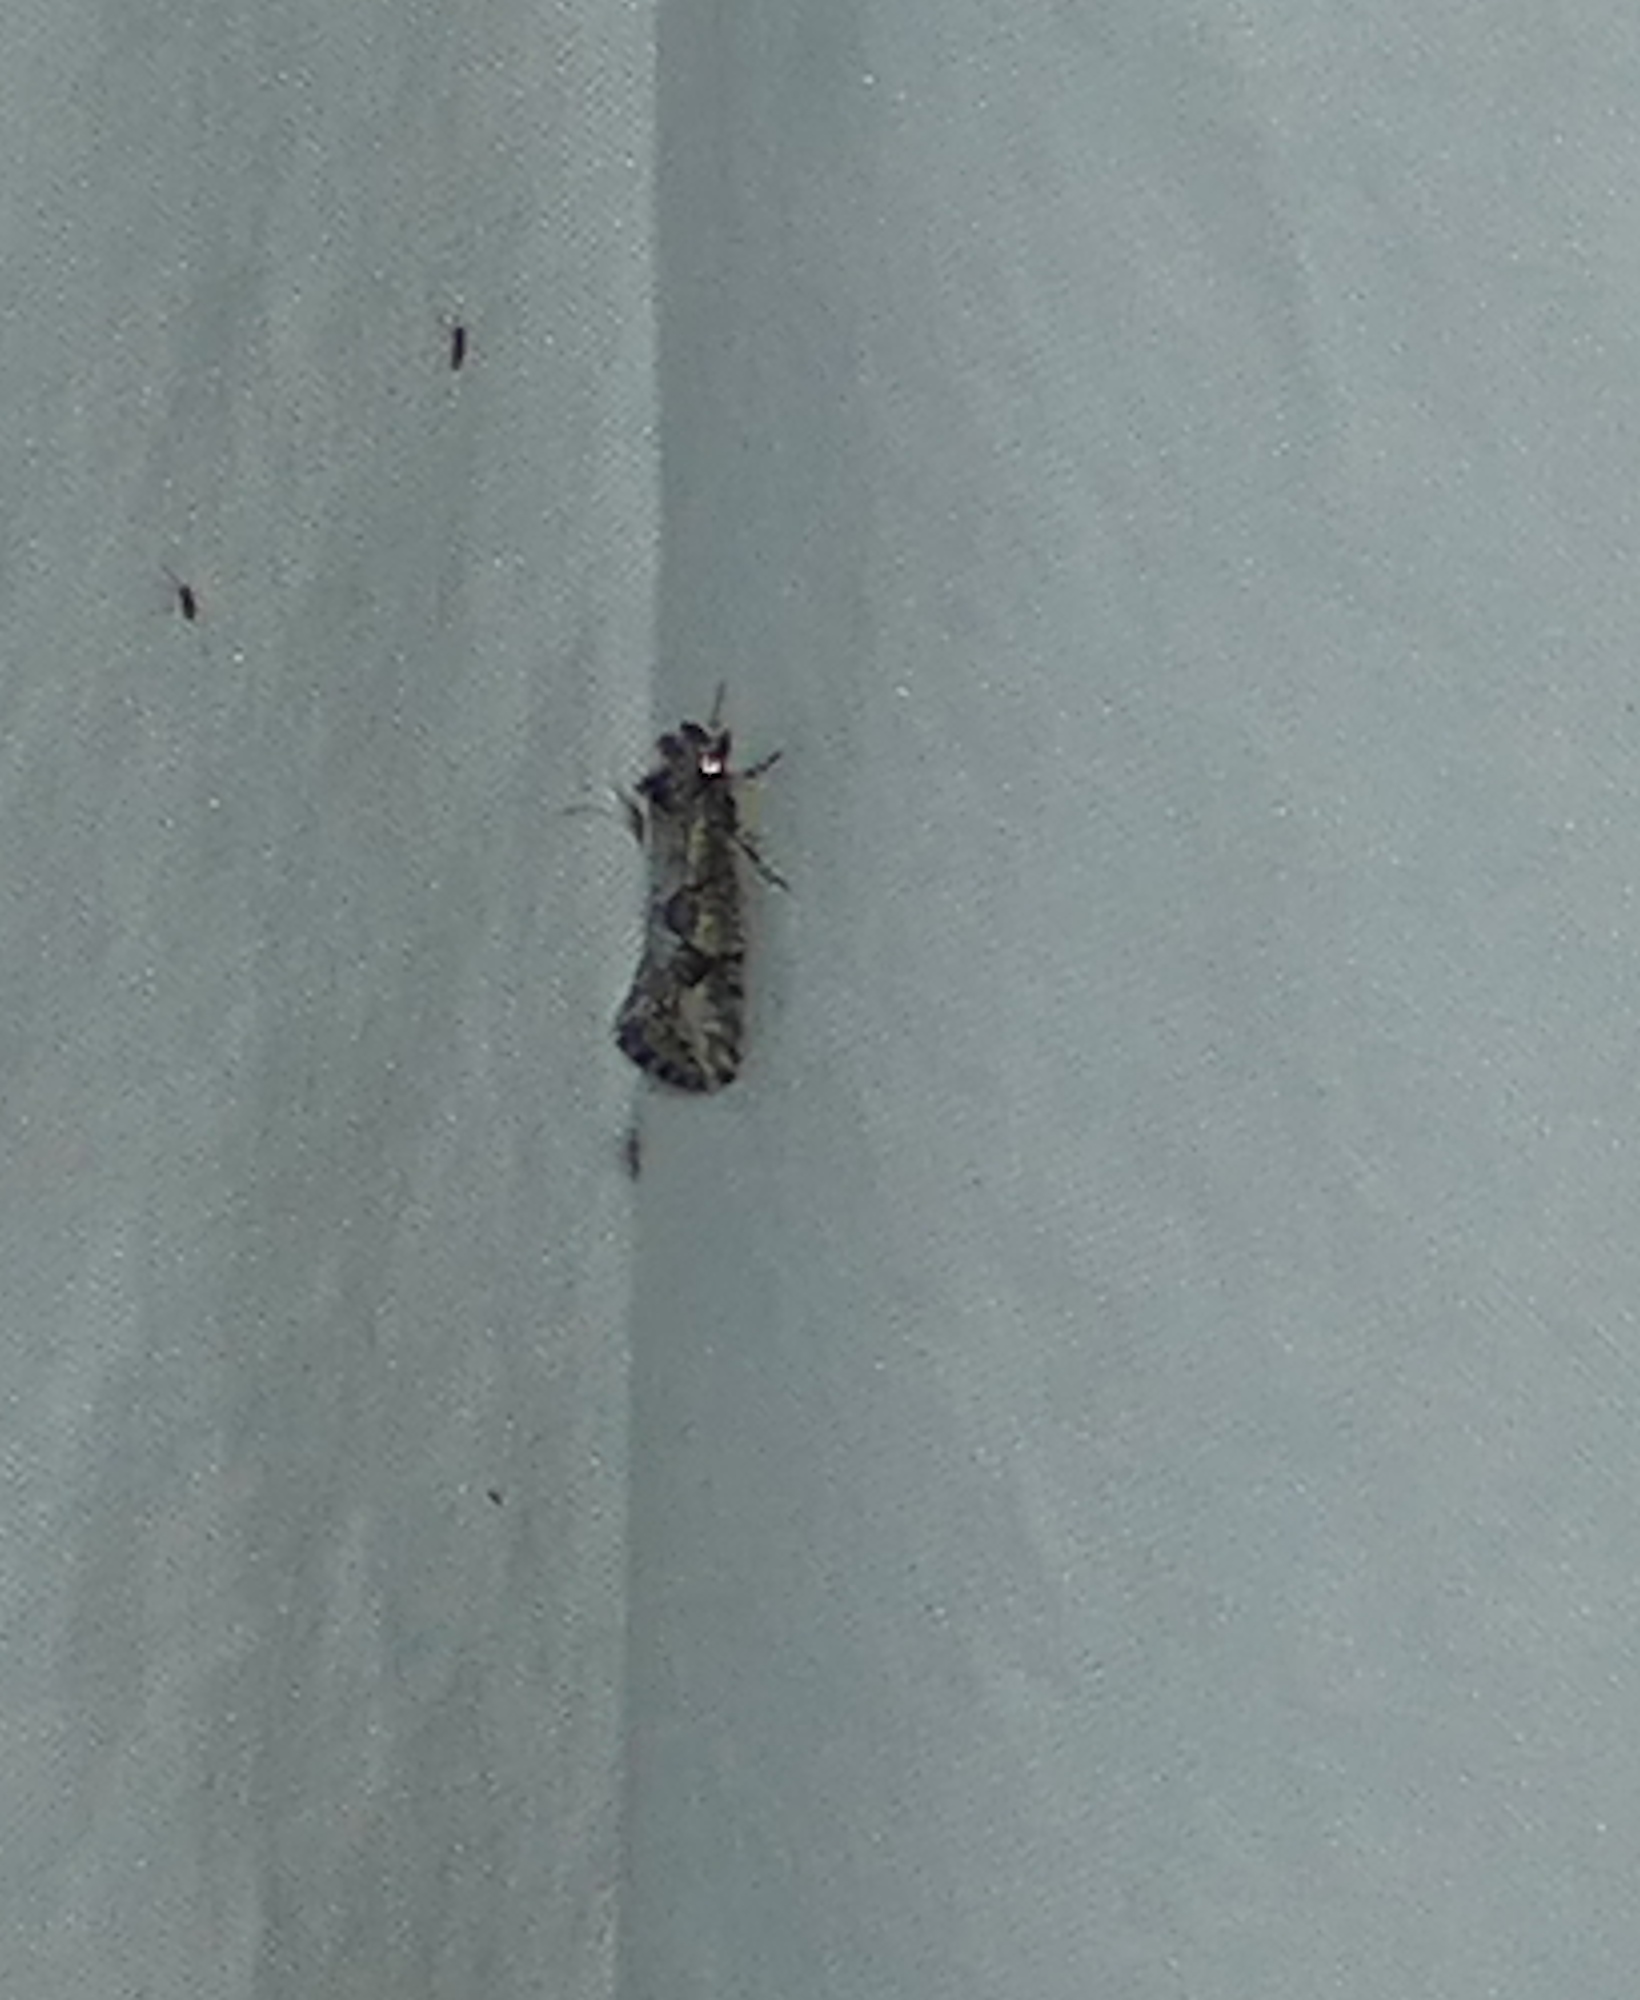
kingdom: Animalia
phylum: Arthropoda
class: Insecta
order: Lepidoptera
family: Tineidae
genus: Acrolophus
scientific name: Acrolophus variabilis
